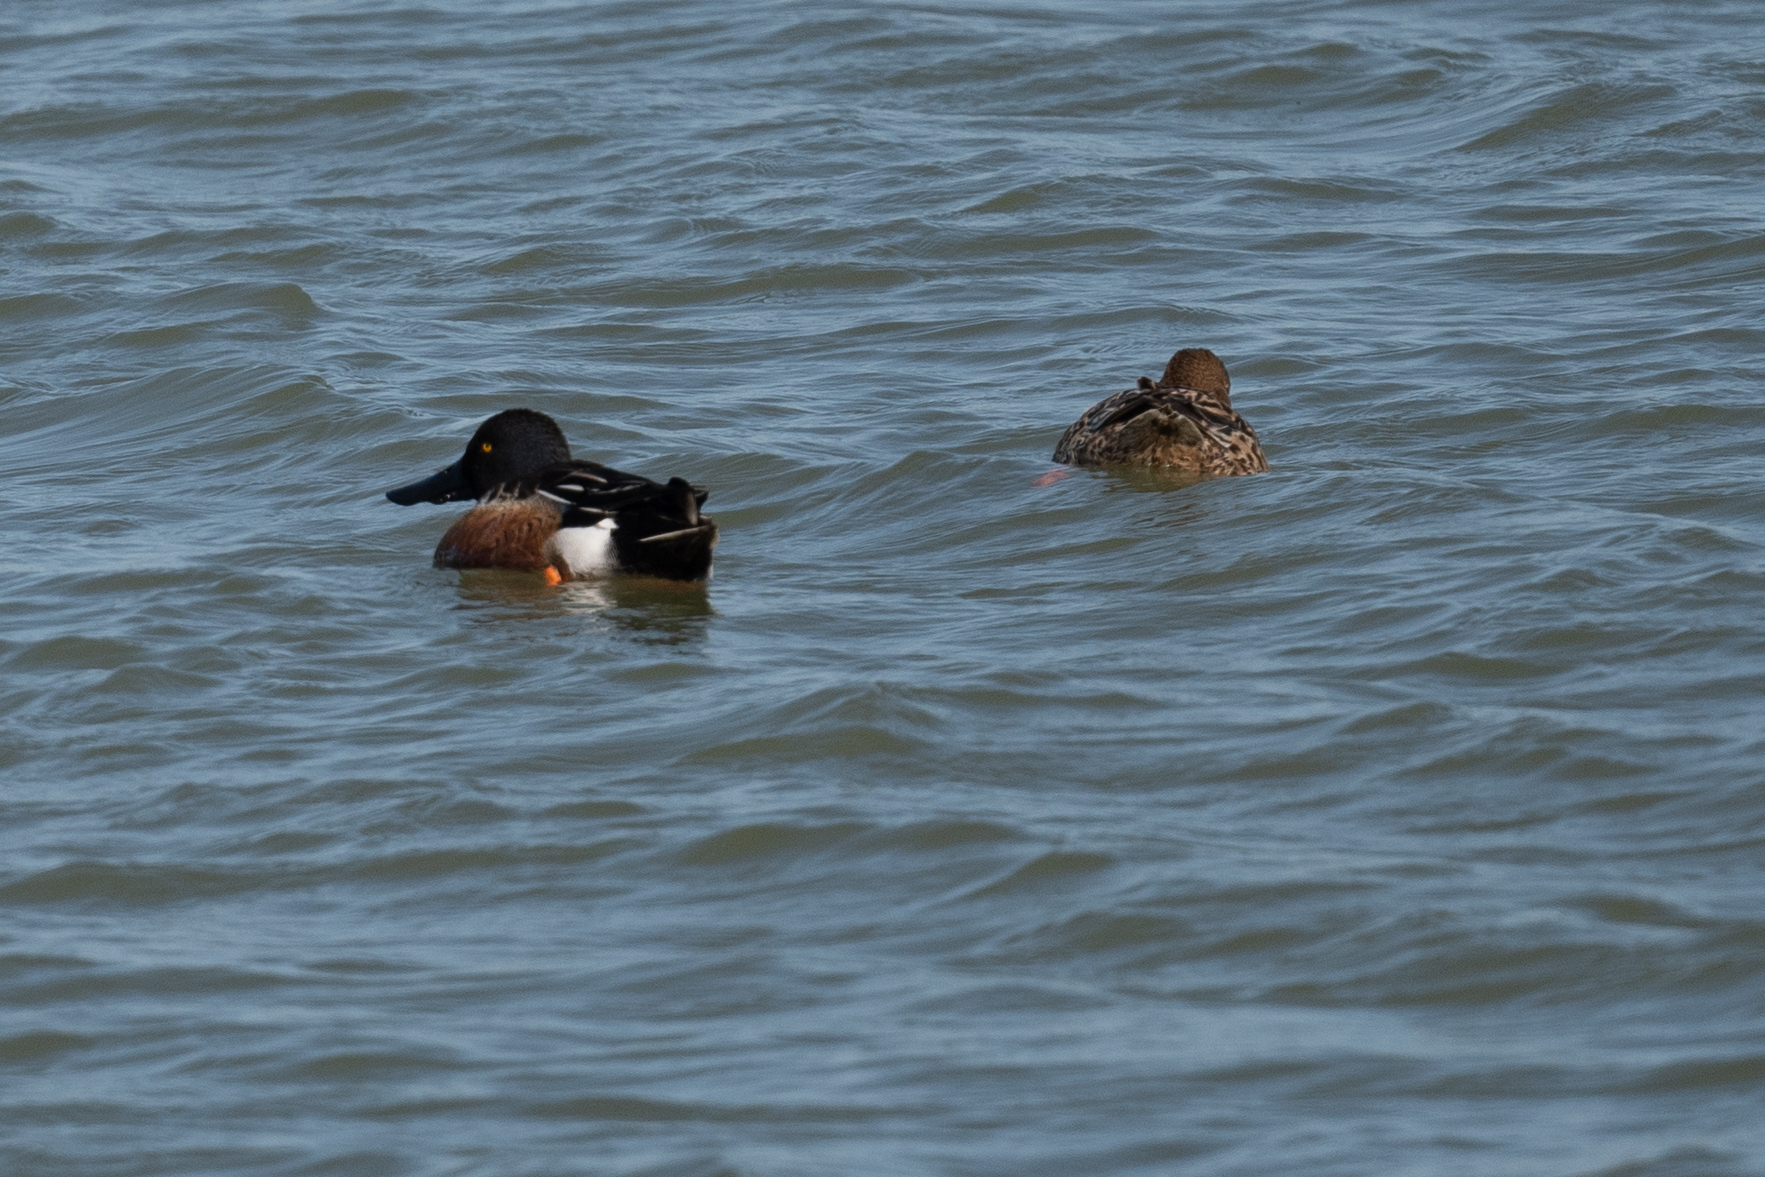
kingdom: Animalia
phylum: Chordata
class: Aves
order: Anseriformes
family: Anatidae
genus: Spatula
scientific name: Spatula clypeata
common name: Northern shoveler
